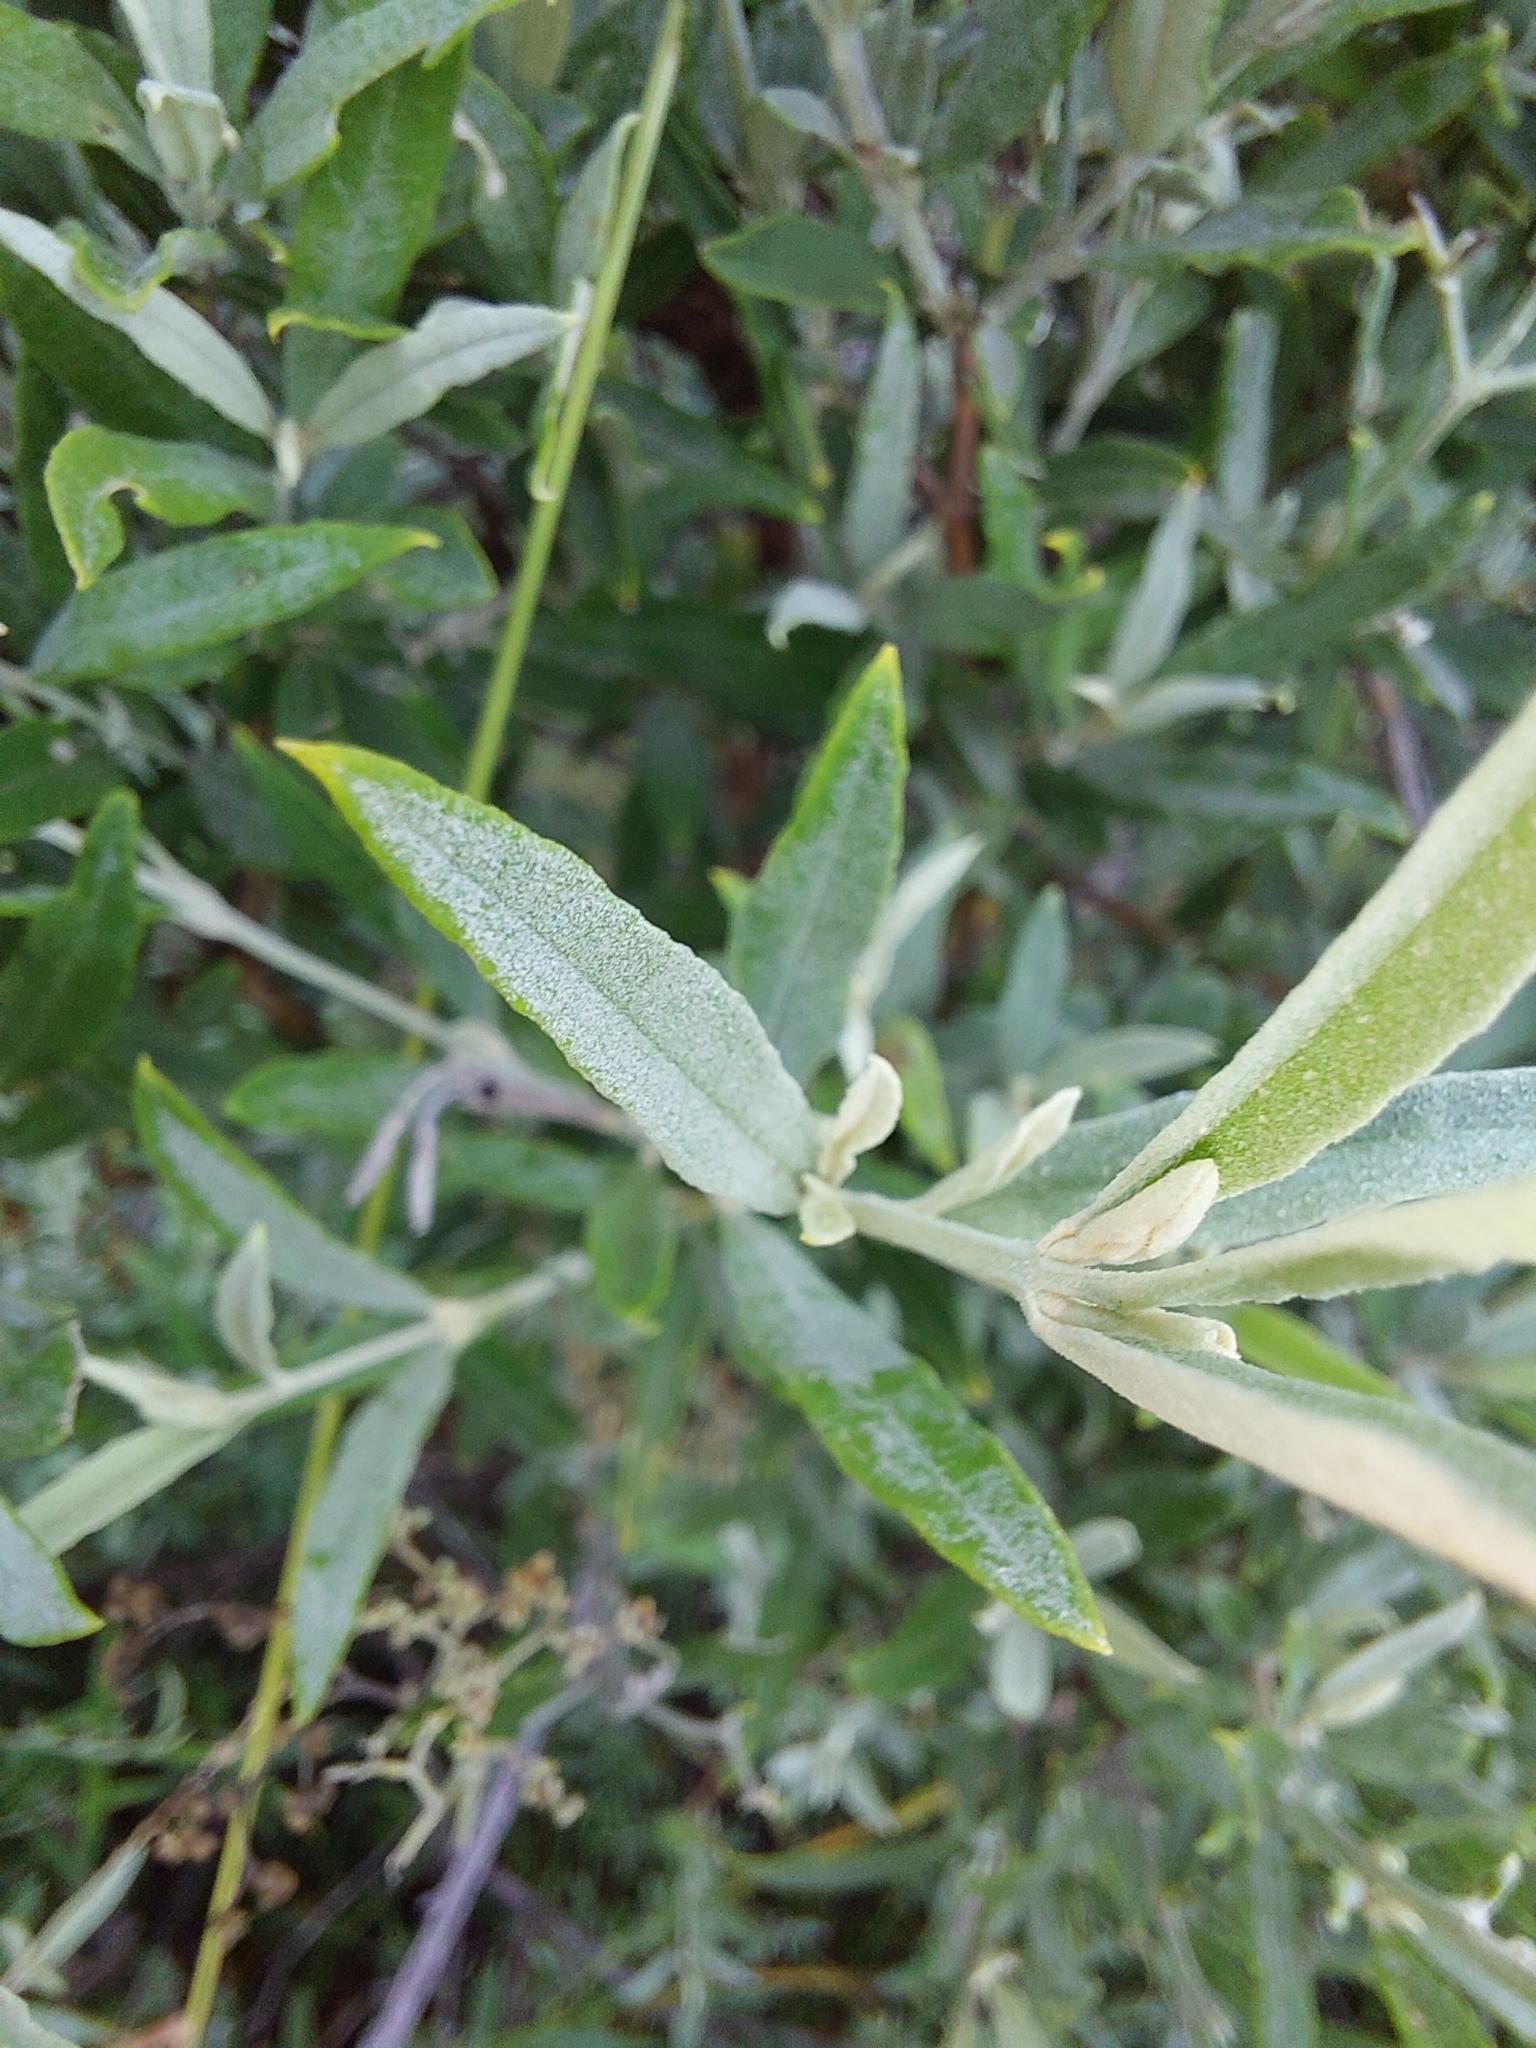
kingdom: Plantae
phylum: Tracheophyta
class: Magnoliopsida
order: Lamiales
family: Scrophulariaceae
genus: Buddleja
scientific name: Buddleja saligna
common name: False olive
